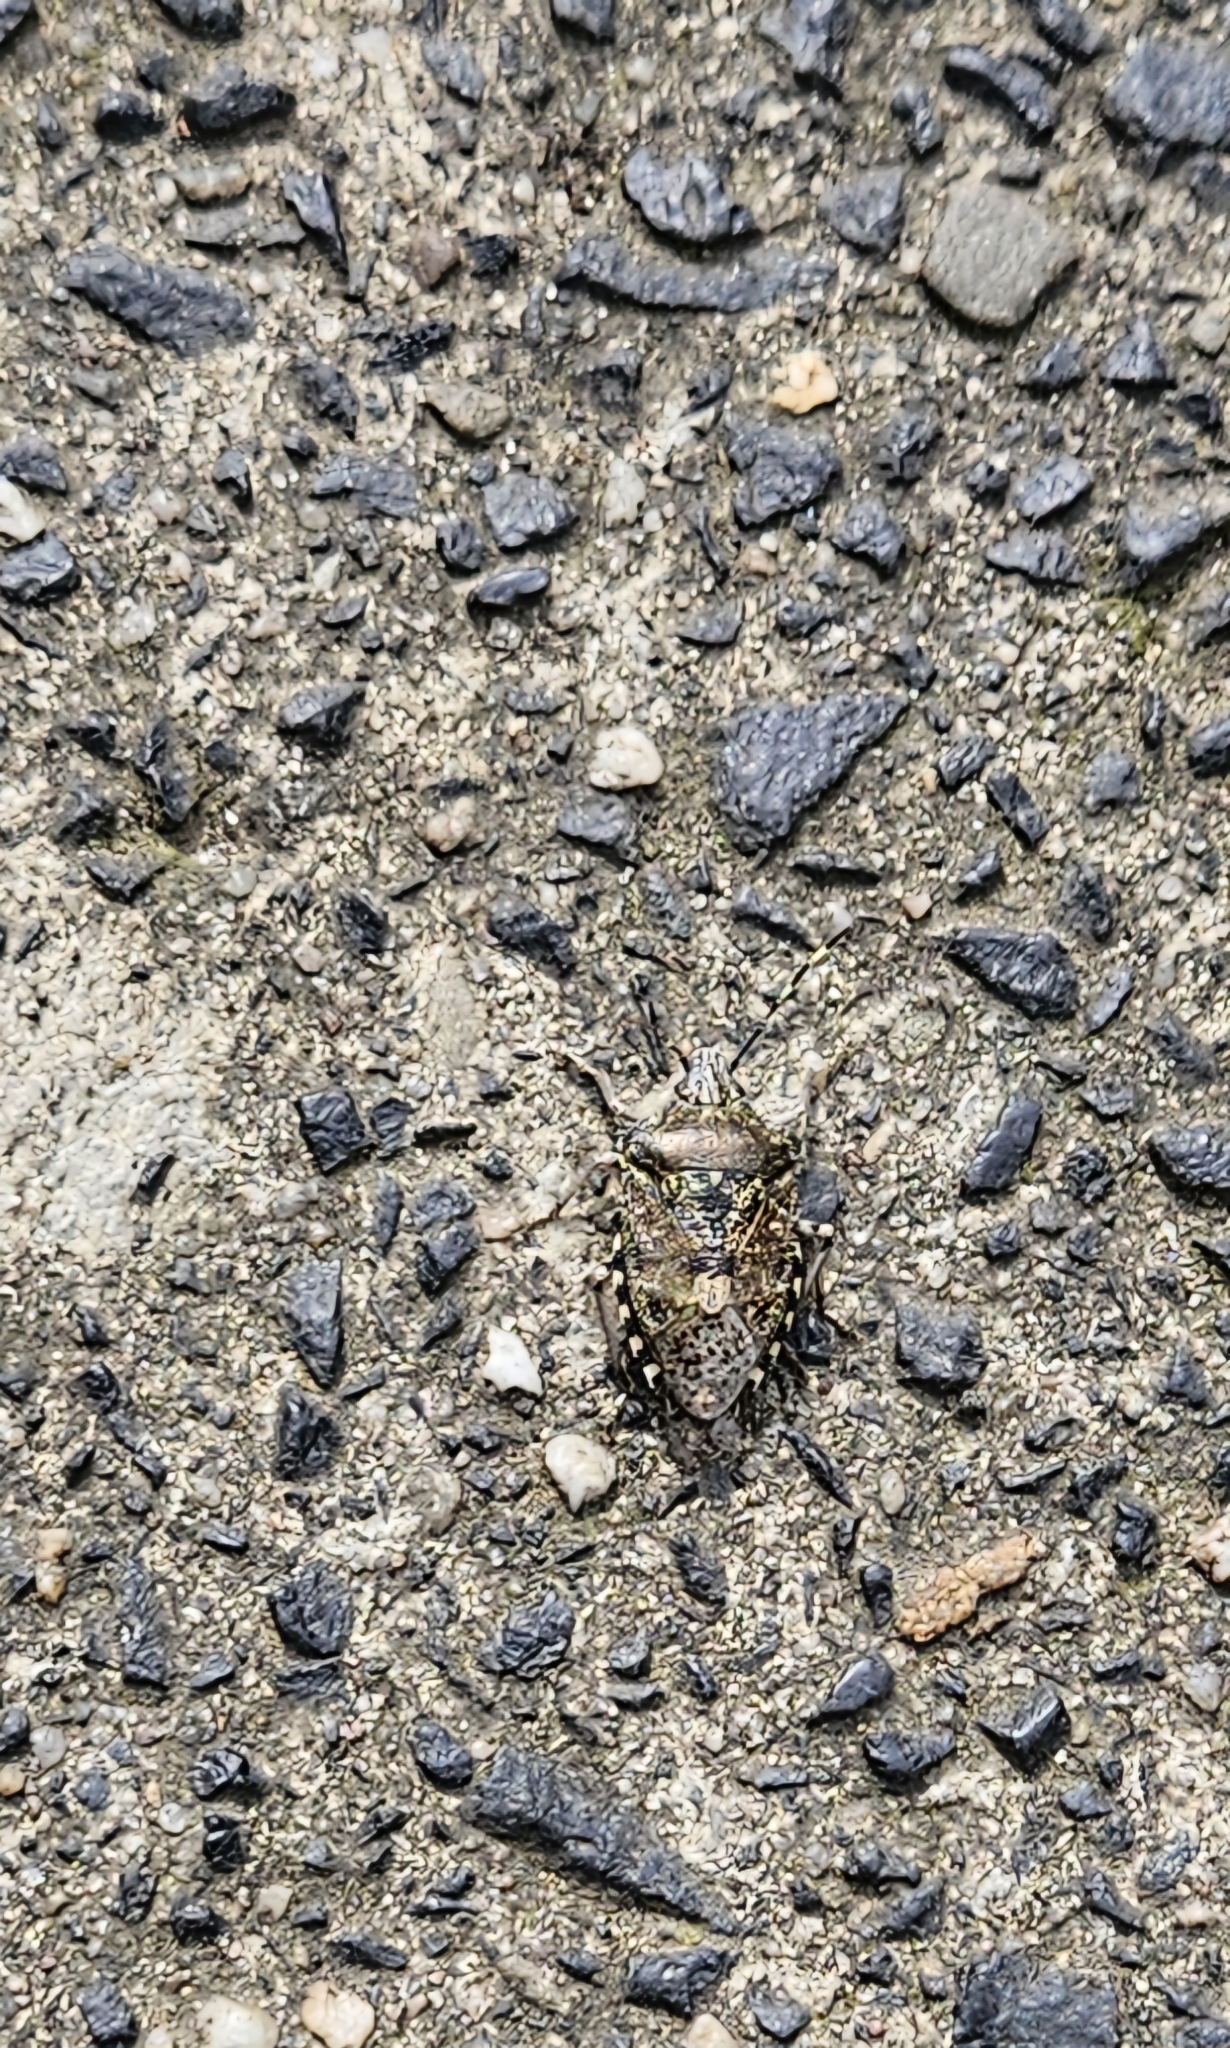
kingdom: Animalia
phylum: Arthropoda
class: Insecta
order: Hemiptera
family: Pentatomidae
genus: Rhaphigaster
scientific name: Rhaphigaster nebulosa
